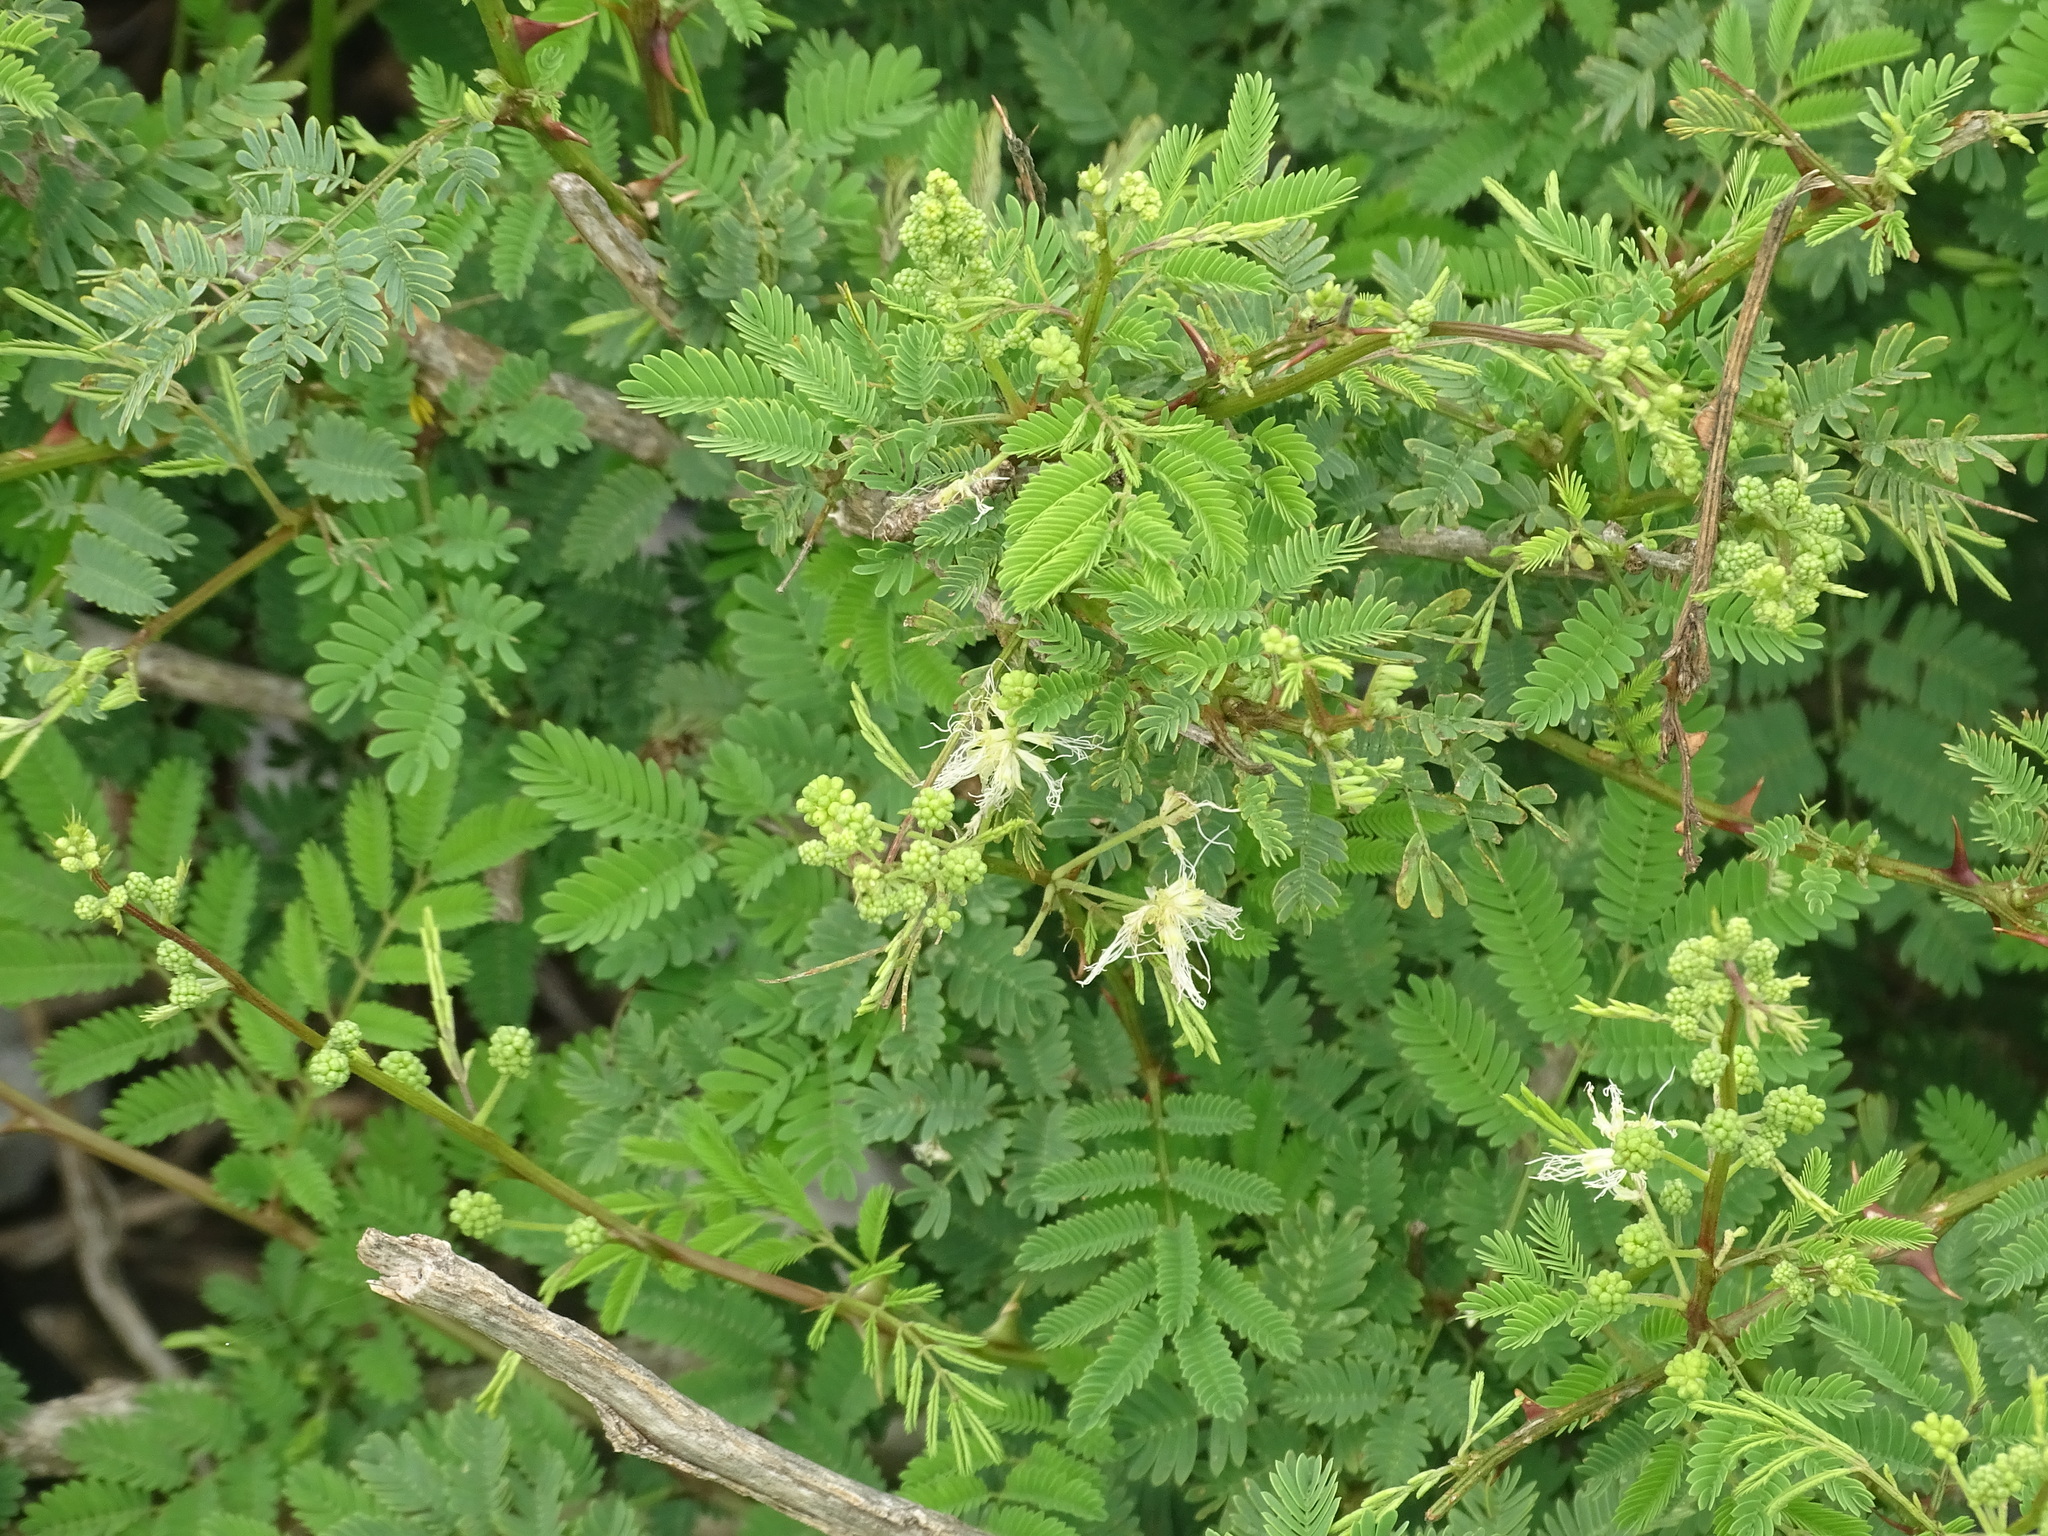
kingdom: Plantae
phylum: Tracheophyta
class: Magnoliopsida
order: Fabales
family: Fabaceae
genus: Mimosa
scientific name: Mimosa acantholoba
